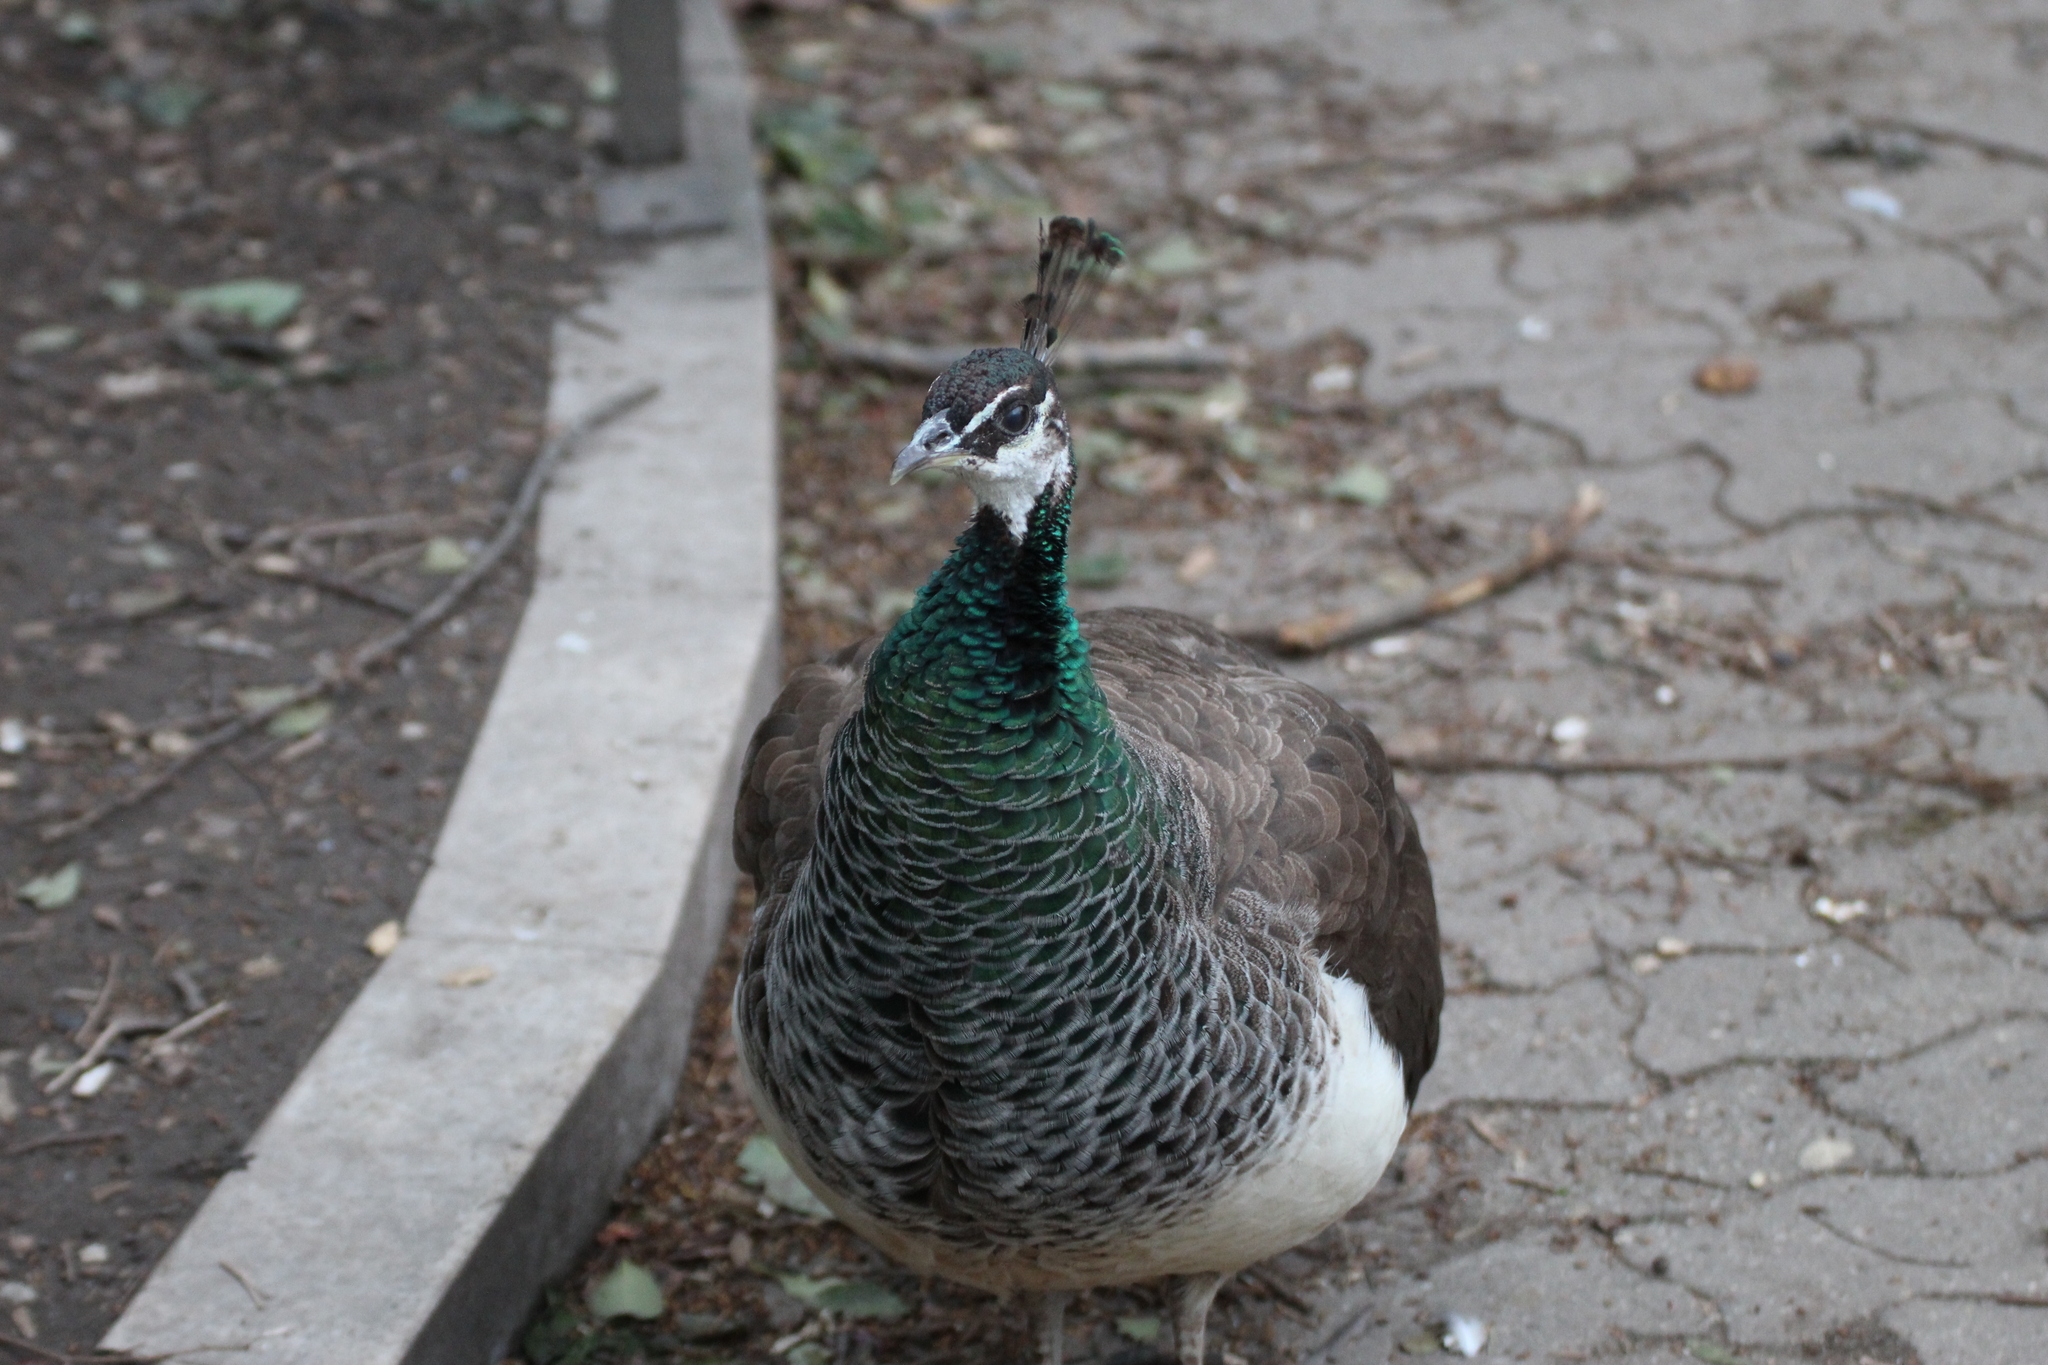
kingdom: Animalia
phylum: Chordata
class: Aves
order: Galliformes
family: Phasianidae
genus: Pavo
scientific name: Pavo cristatus
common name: Indian peafowl
